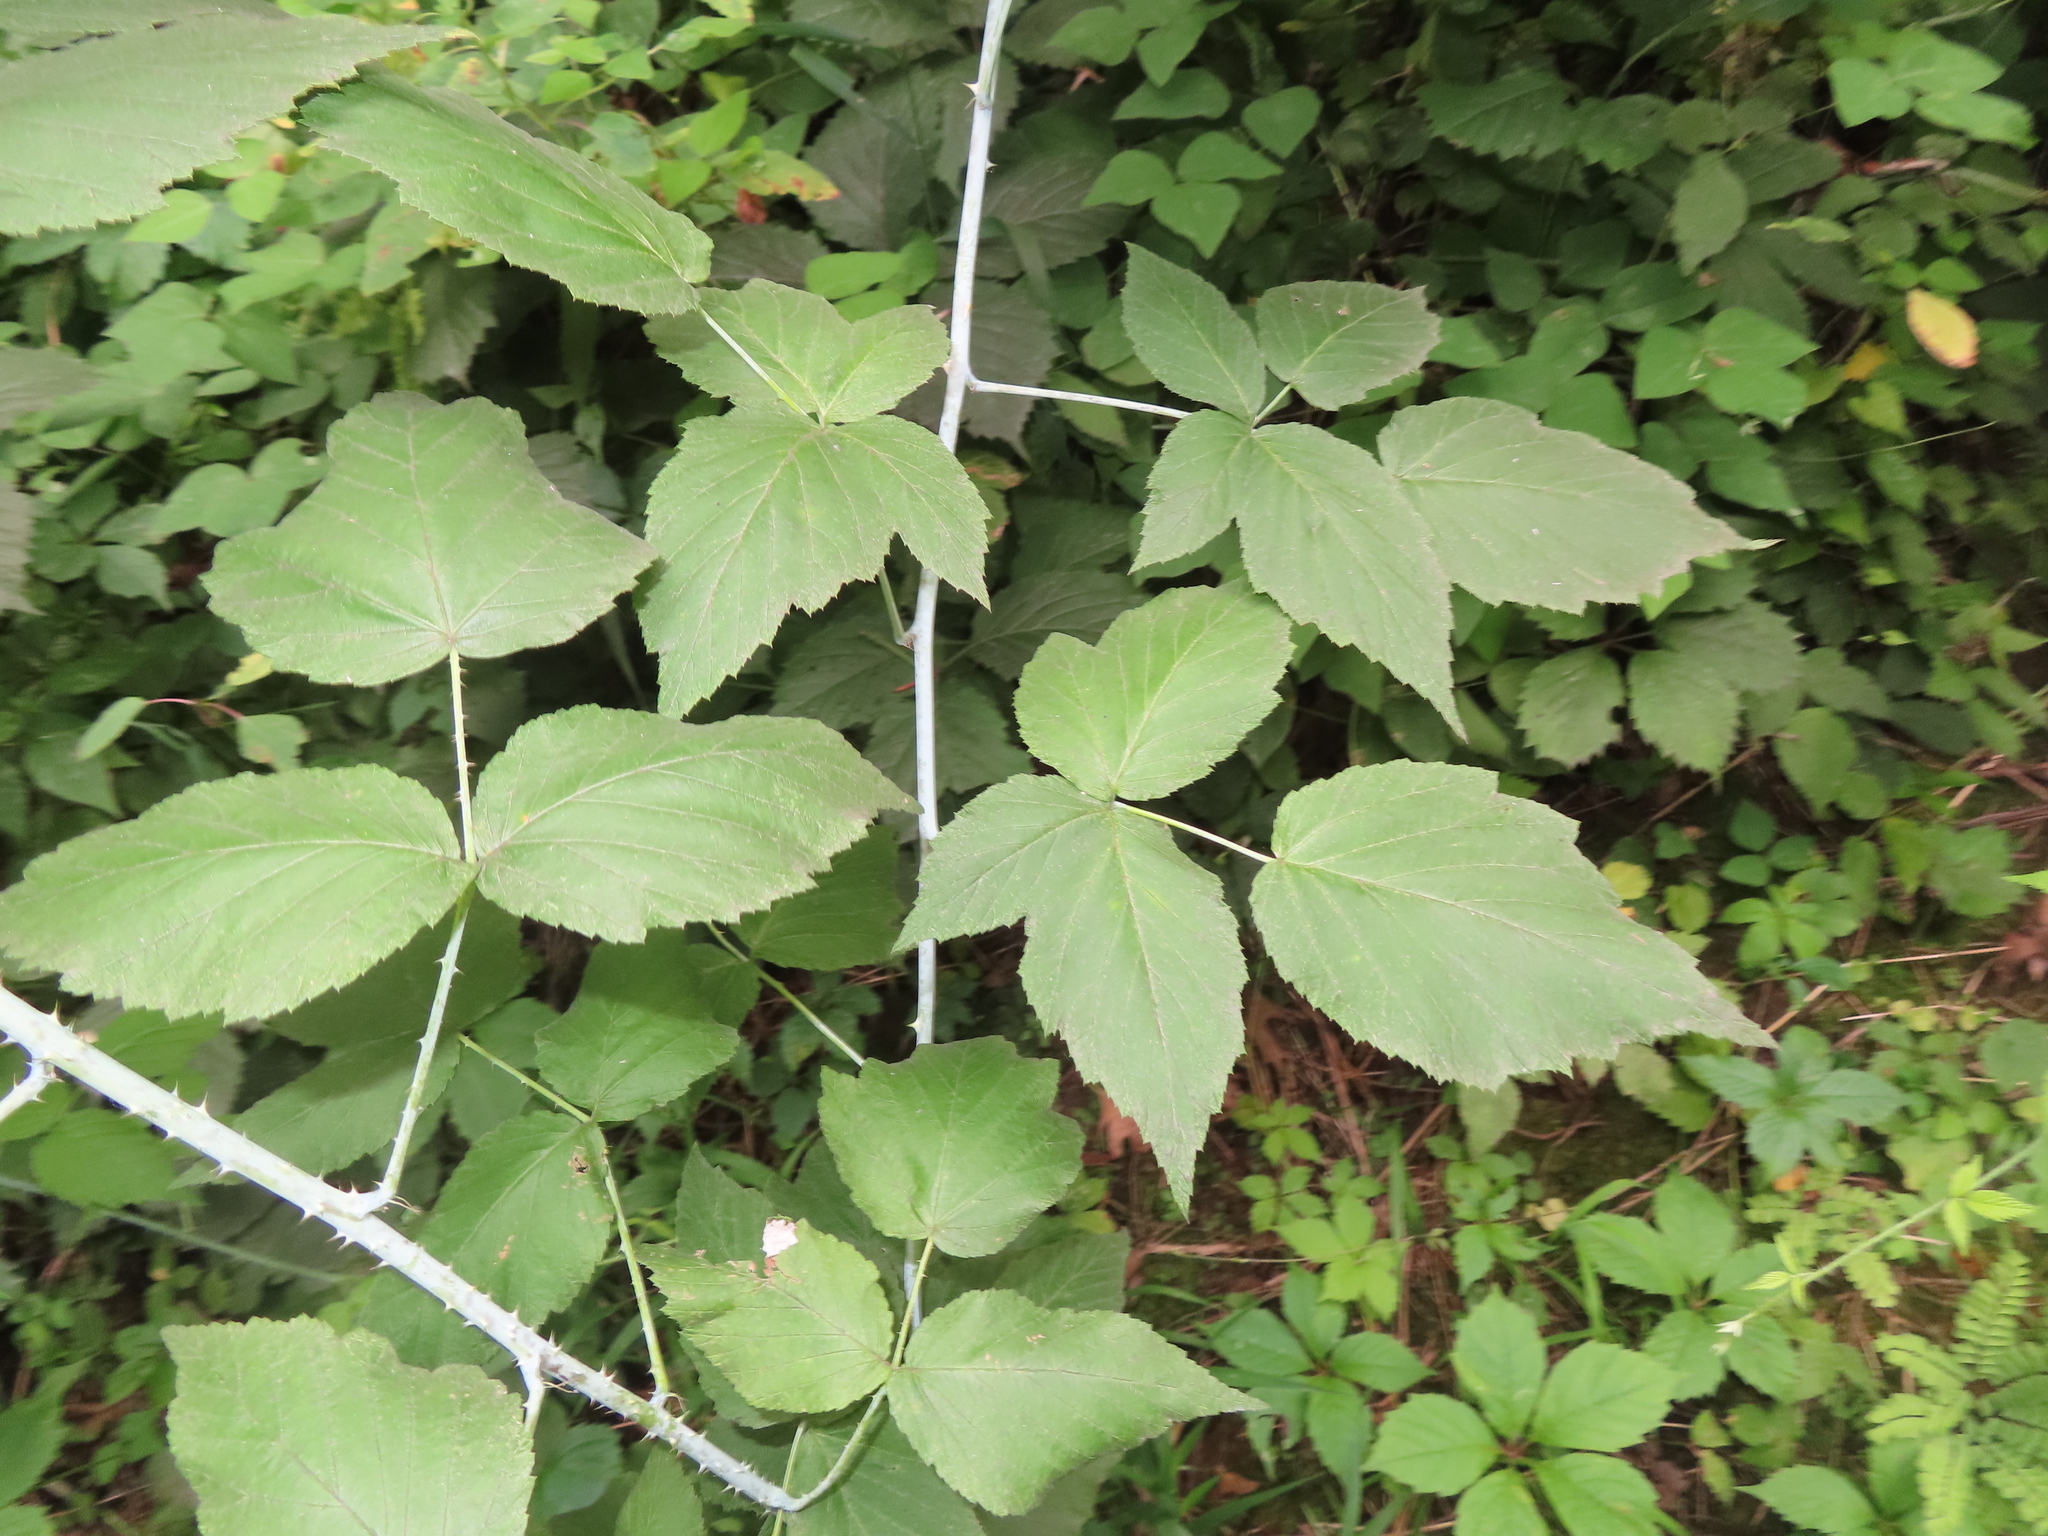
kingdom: Plantae
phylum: Tracheophyta
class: Magnoliopsida
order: Rosales
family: Rosaceae
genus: Rubus
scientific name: Rubus occidentalis
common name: Black raspberry
